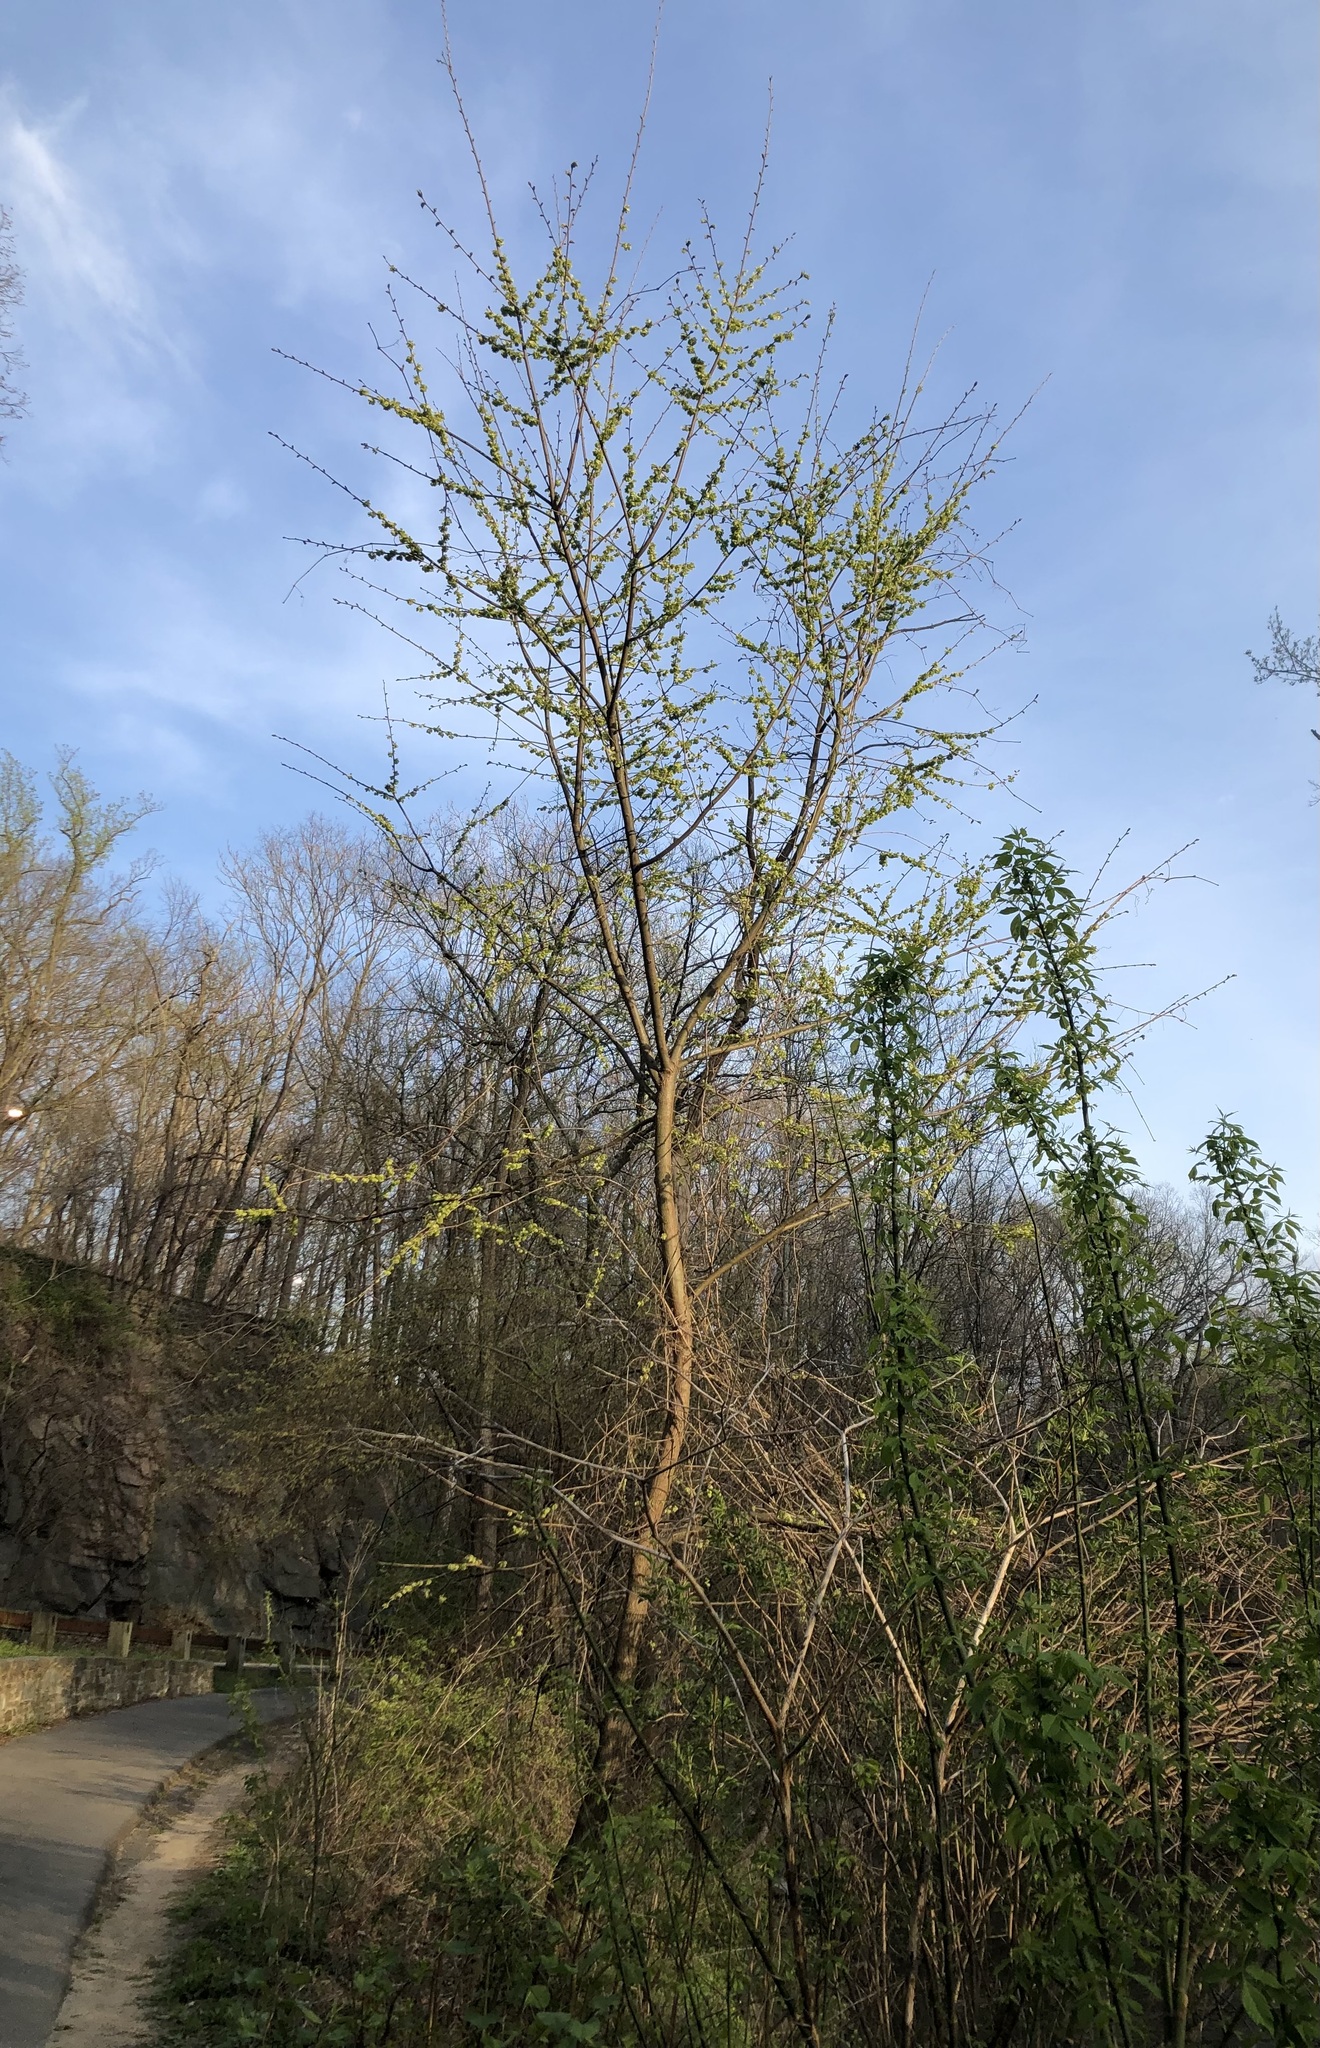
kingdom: Plantae
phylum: Tracheophyta
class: Magnoliopsida
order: Rosales
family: Ulmaceae
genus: Ulmus
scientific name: Ulmus rubra
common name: Slippery elm
